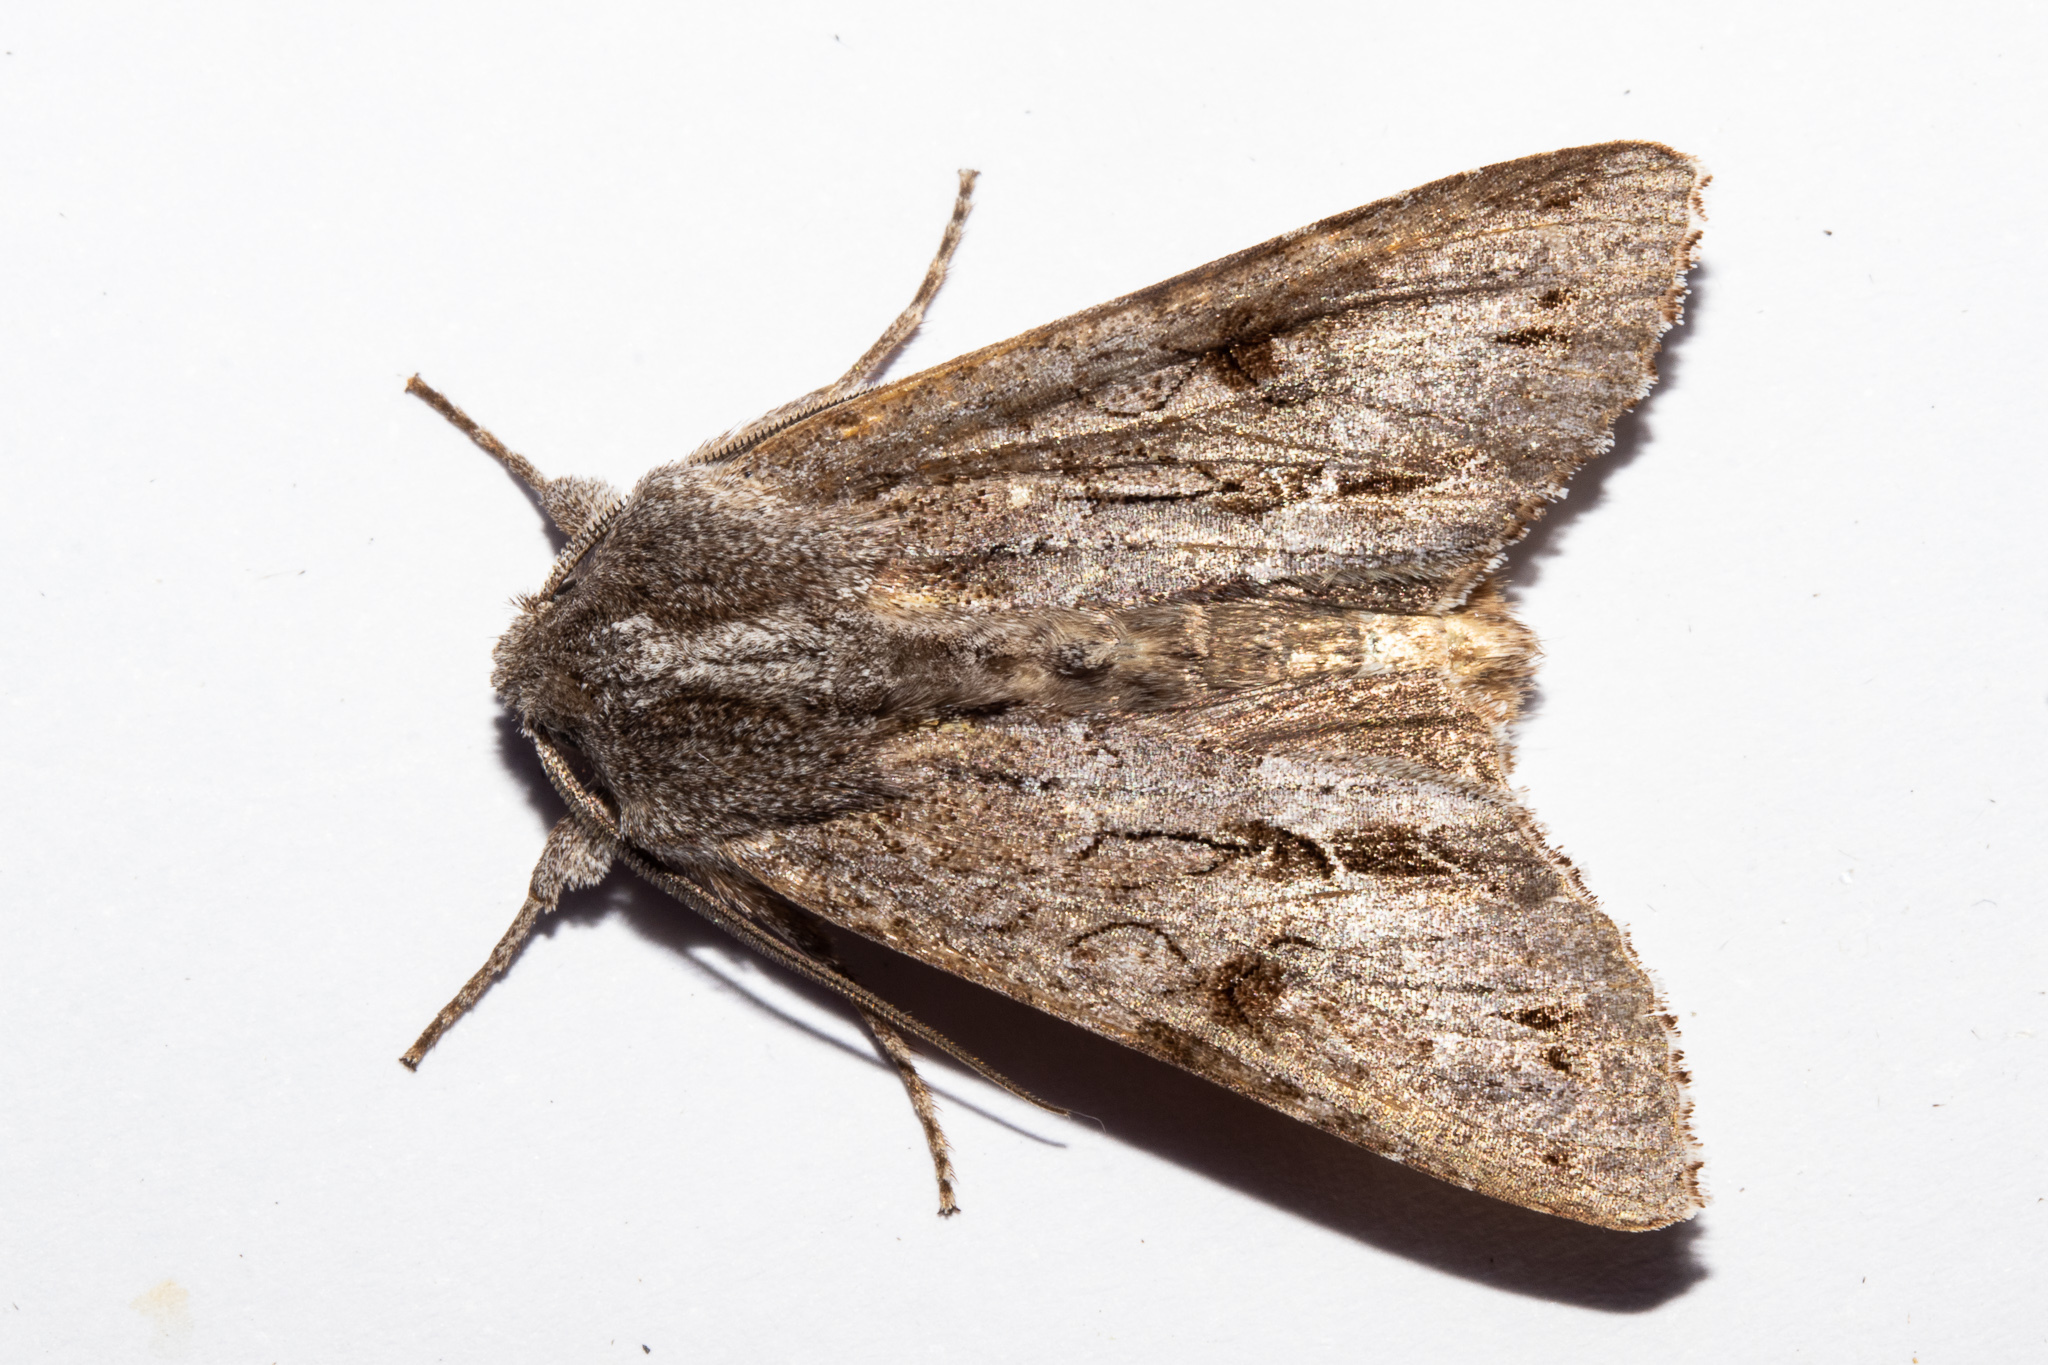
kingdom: Animalia
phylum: Arthropoda
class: Insecta
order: Lepidoptera
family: Noctuidae
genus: Ichneutica
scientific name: Ichneutica
